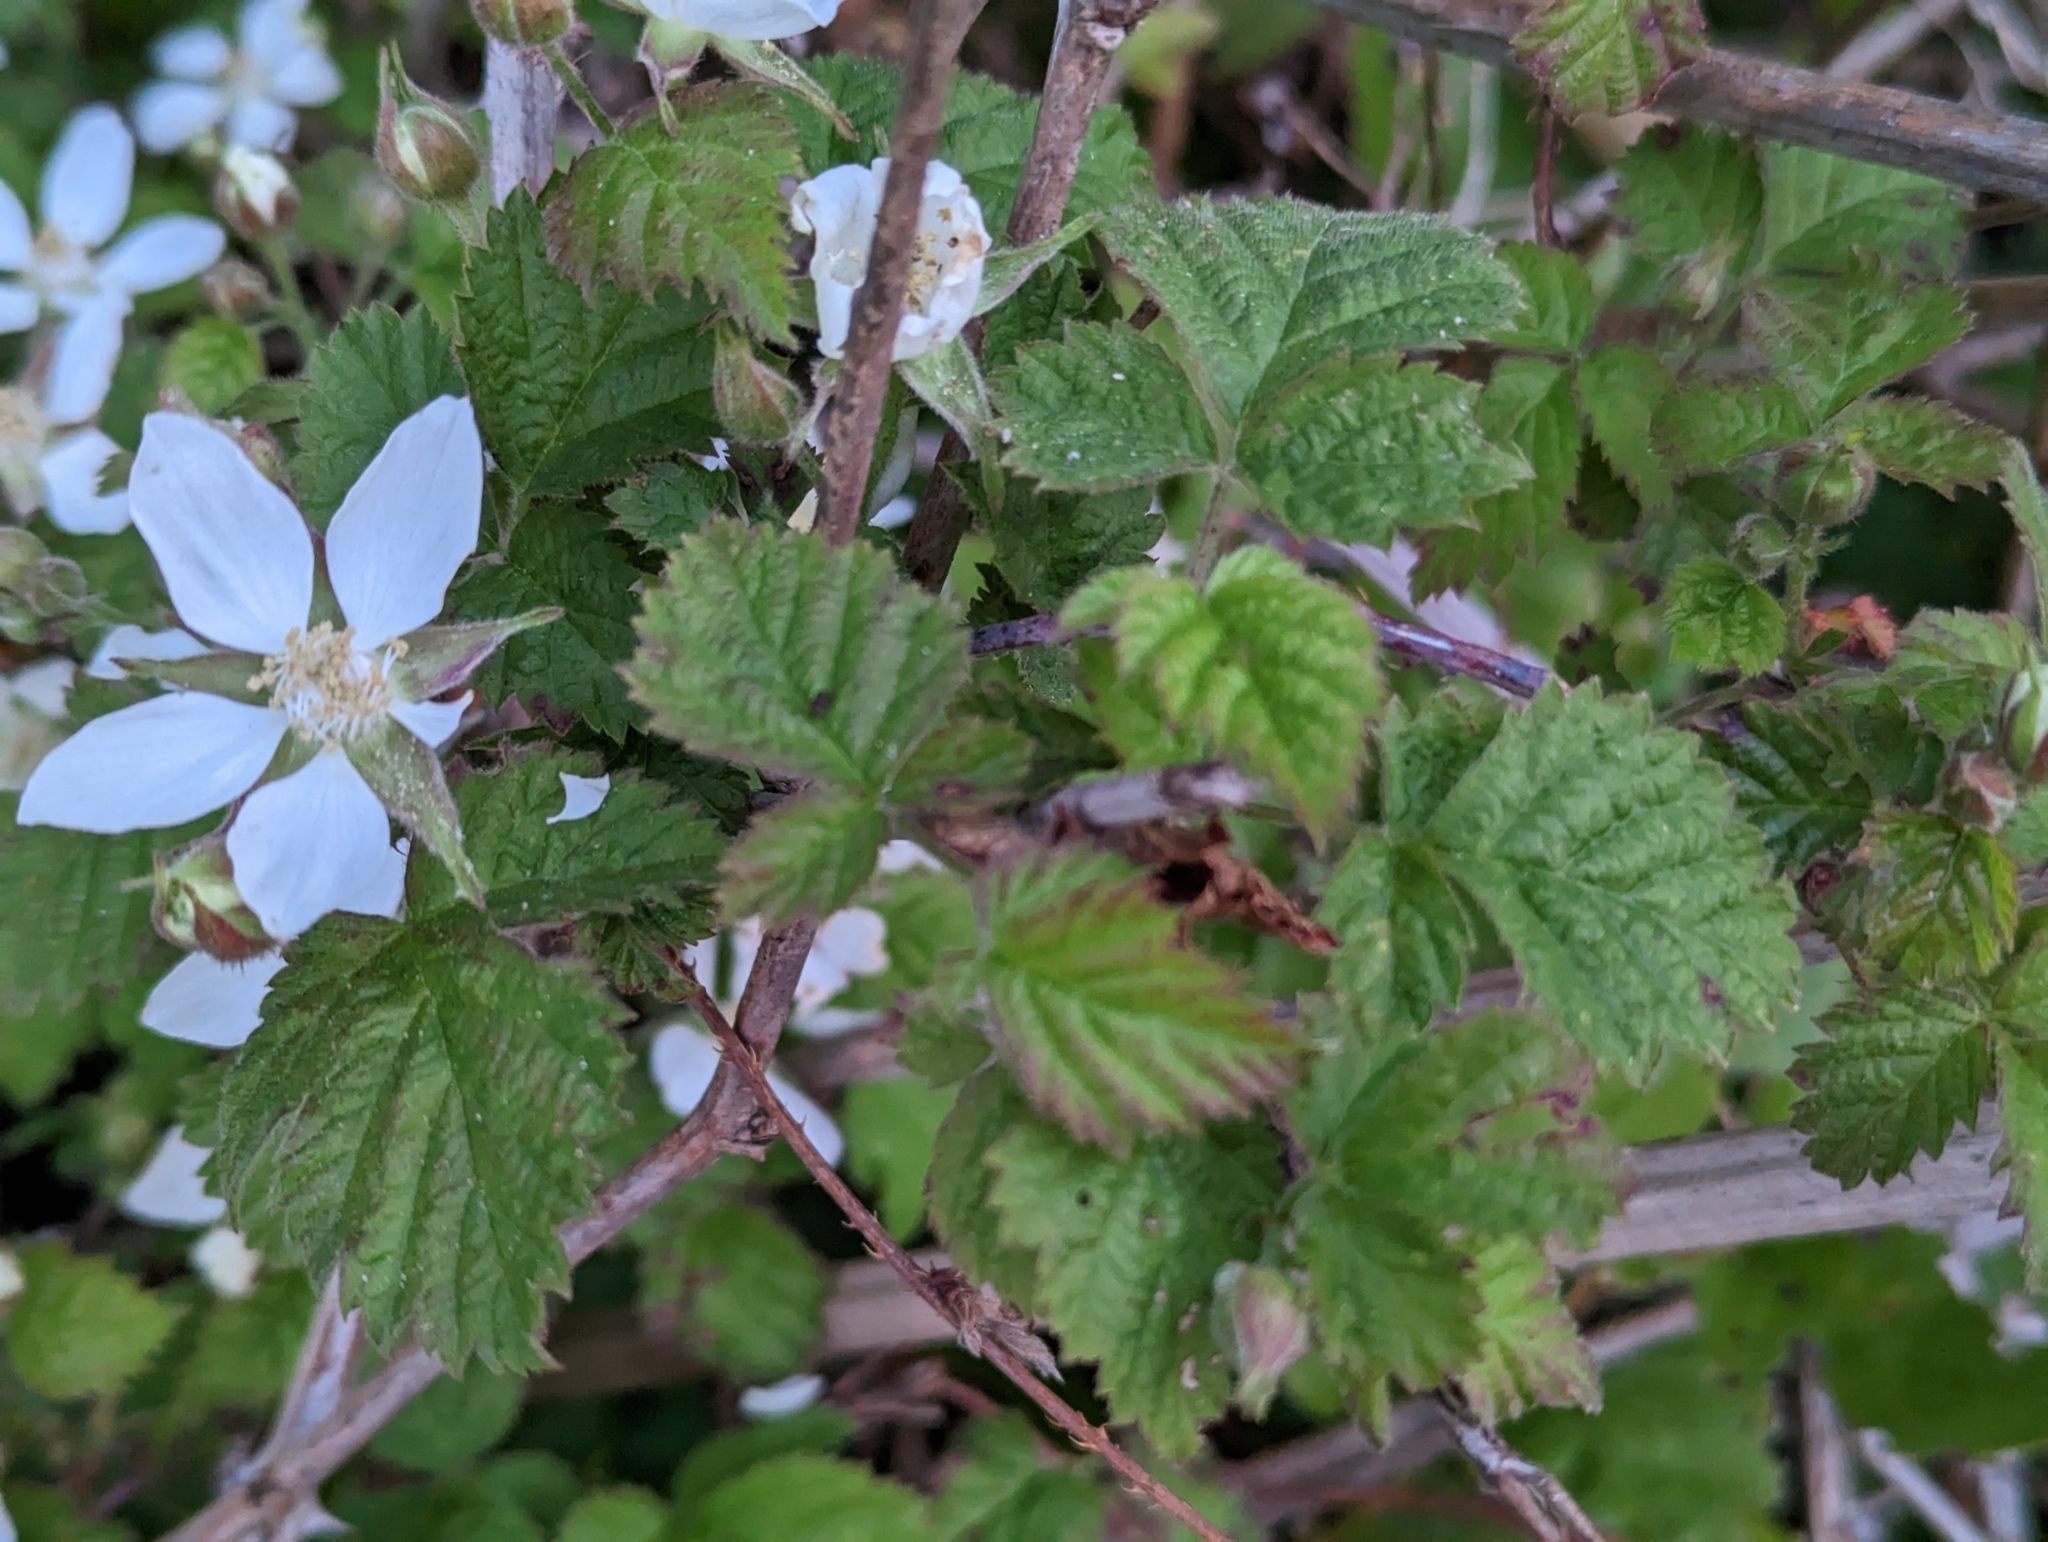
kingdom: Plantae
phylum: Tracheophyta
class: Magnoliopsida
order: Rosales
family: Rosaceae
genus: Rubus
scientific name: Rubus ursinus
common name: Pacific blackberry
